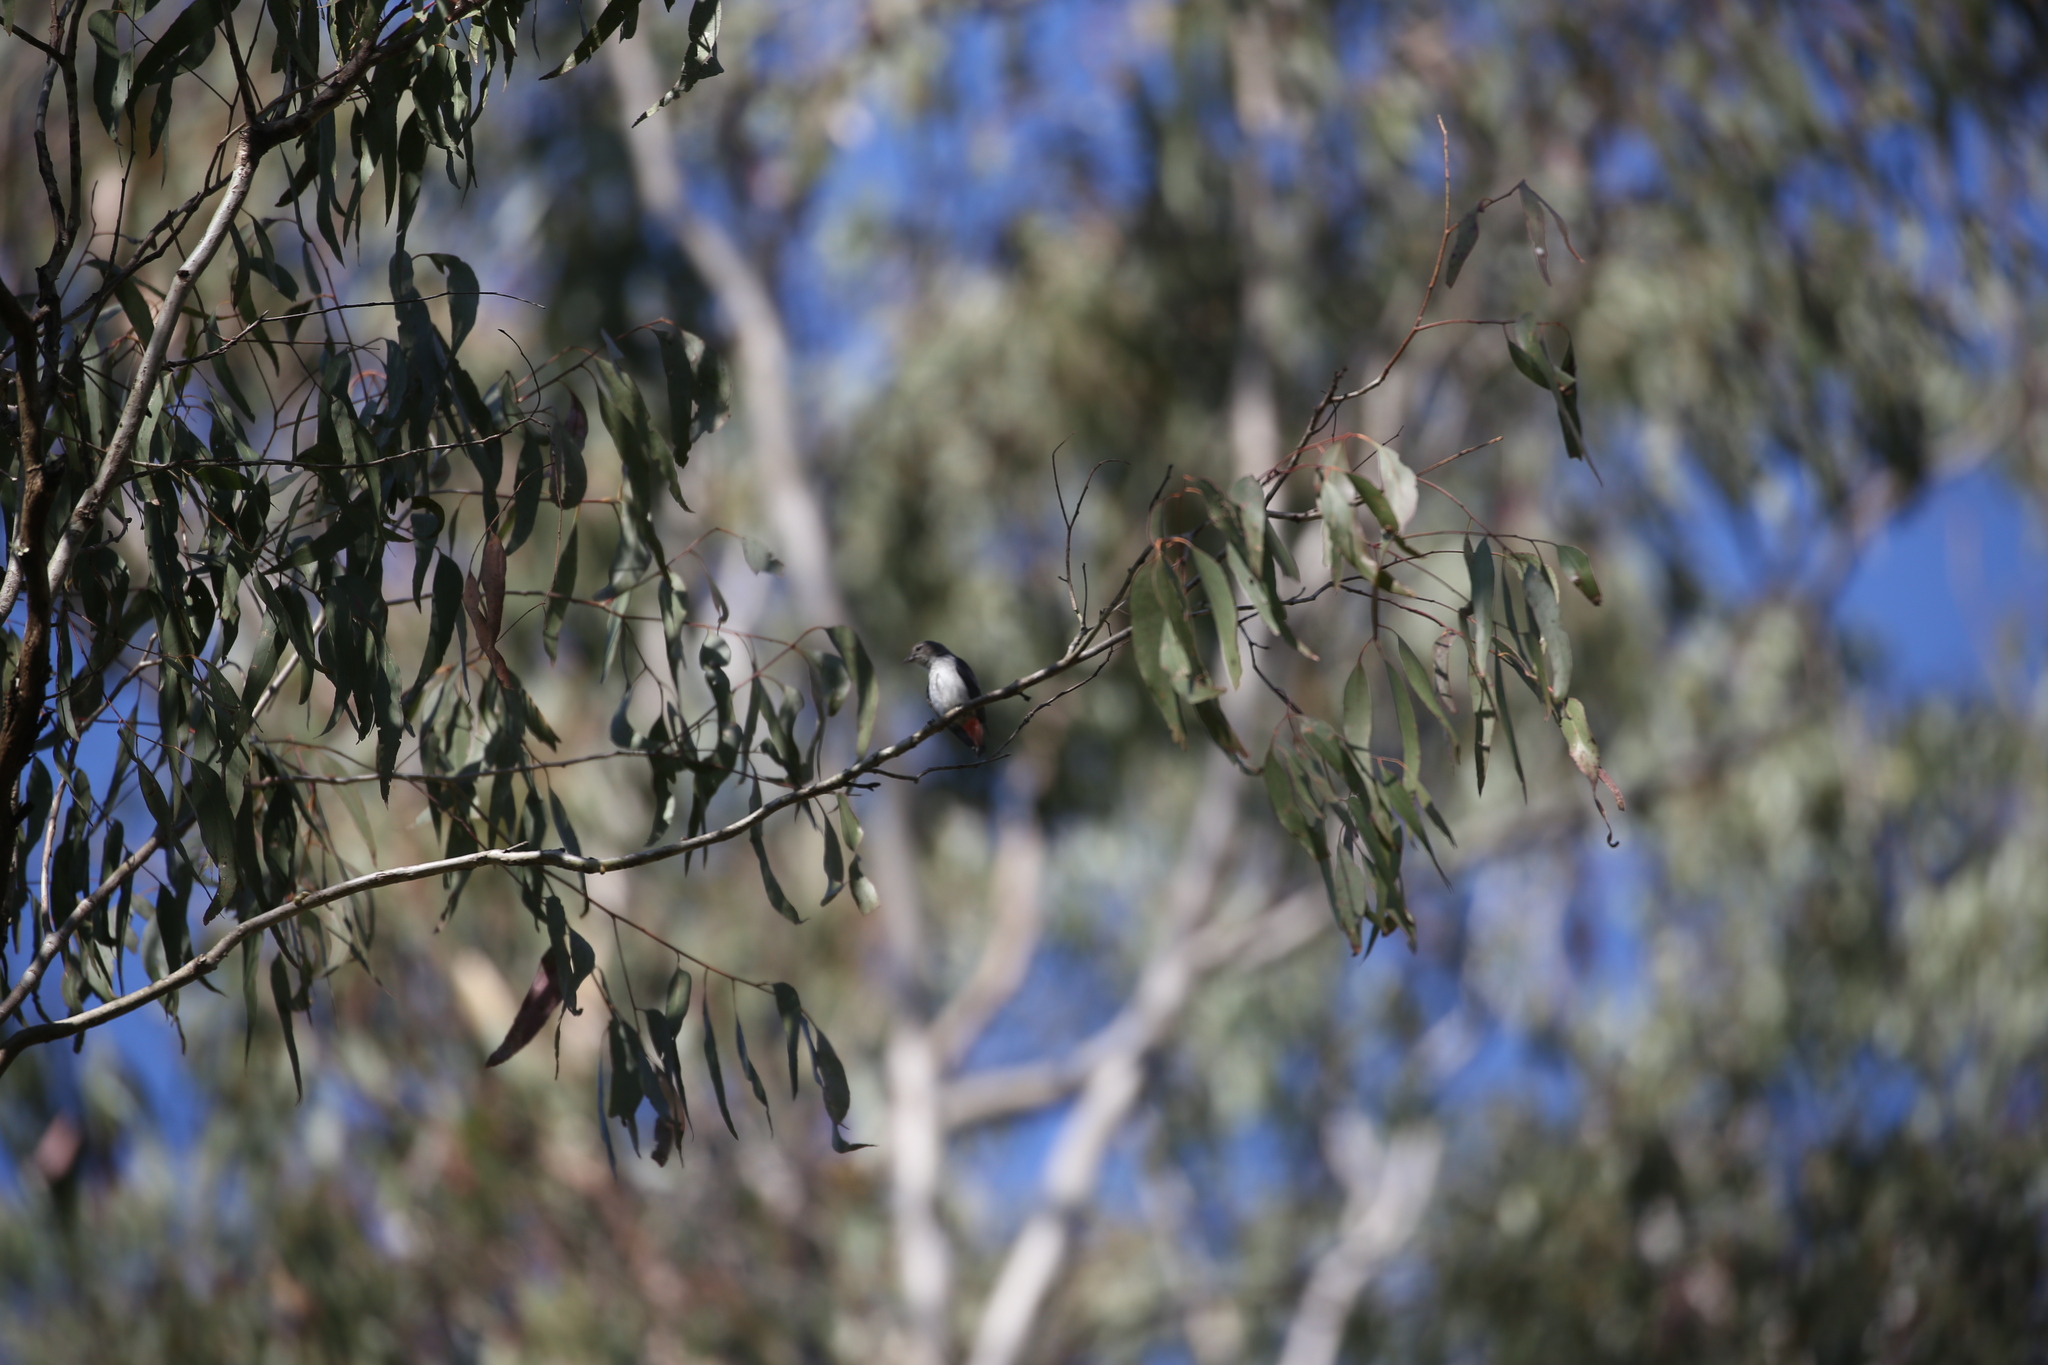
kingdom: Animalia
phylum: Chordata
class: Aves
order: Passeriformes
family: Dicaeidae
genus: Dicaeum
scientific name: Dicaeum hirundinaceum
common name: Mistletoebird
